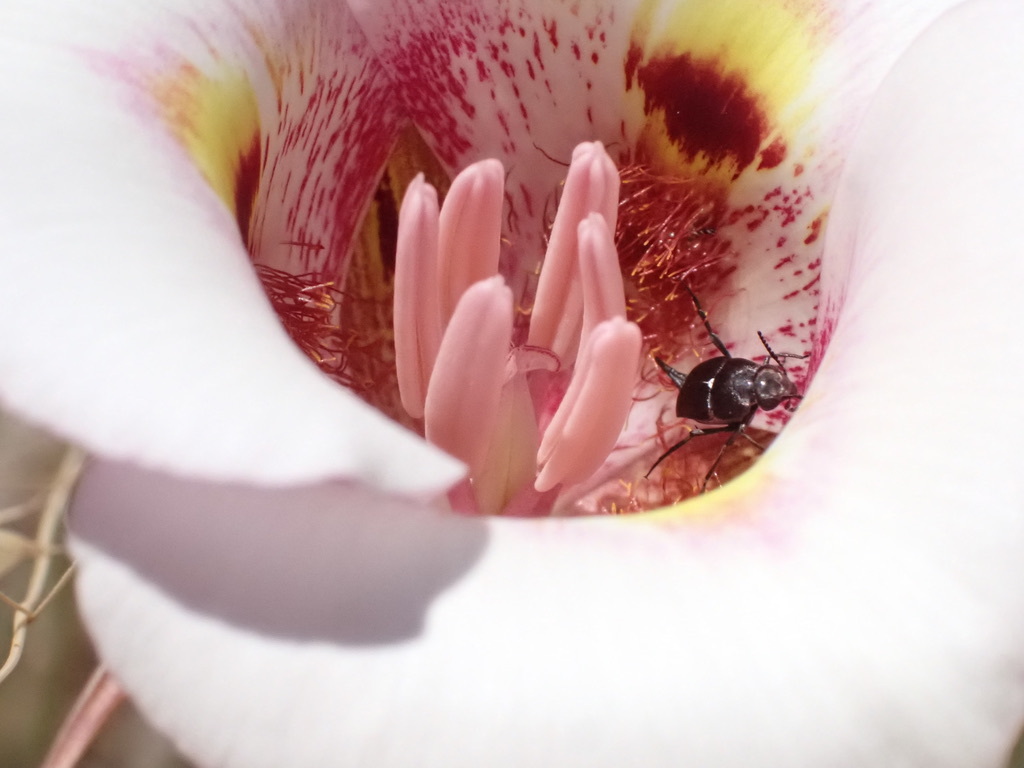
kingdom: Plantae
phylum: Tracheophyta
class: Liliopsida
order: Liliales
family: Liliaceae
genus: Calochortus
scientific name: Calochortus argillosus
